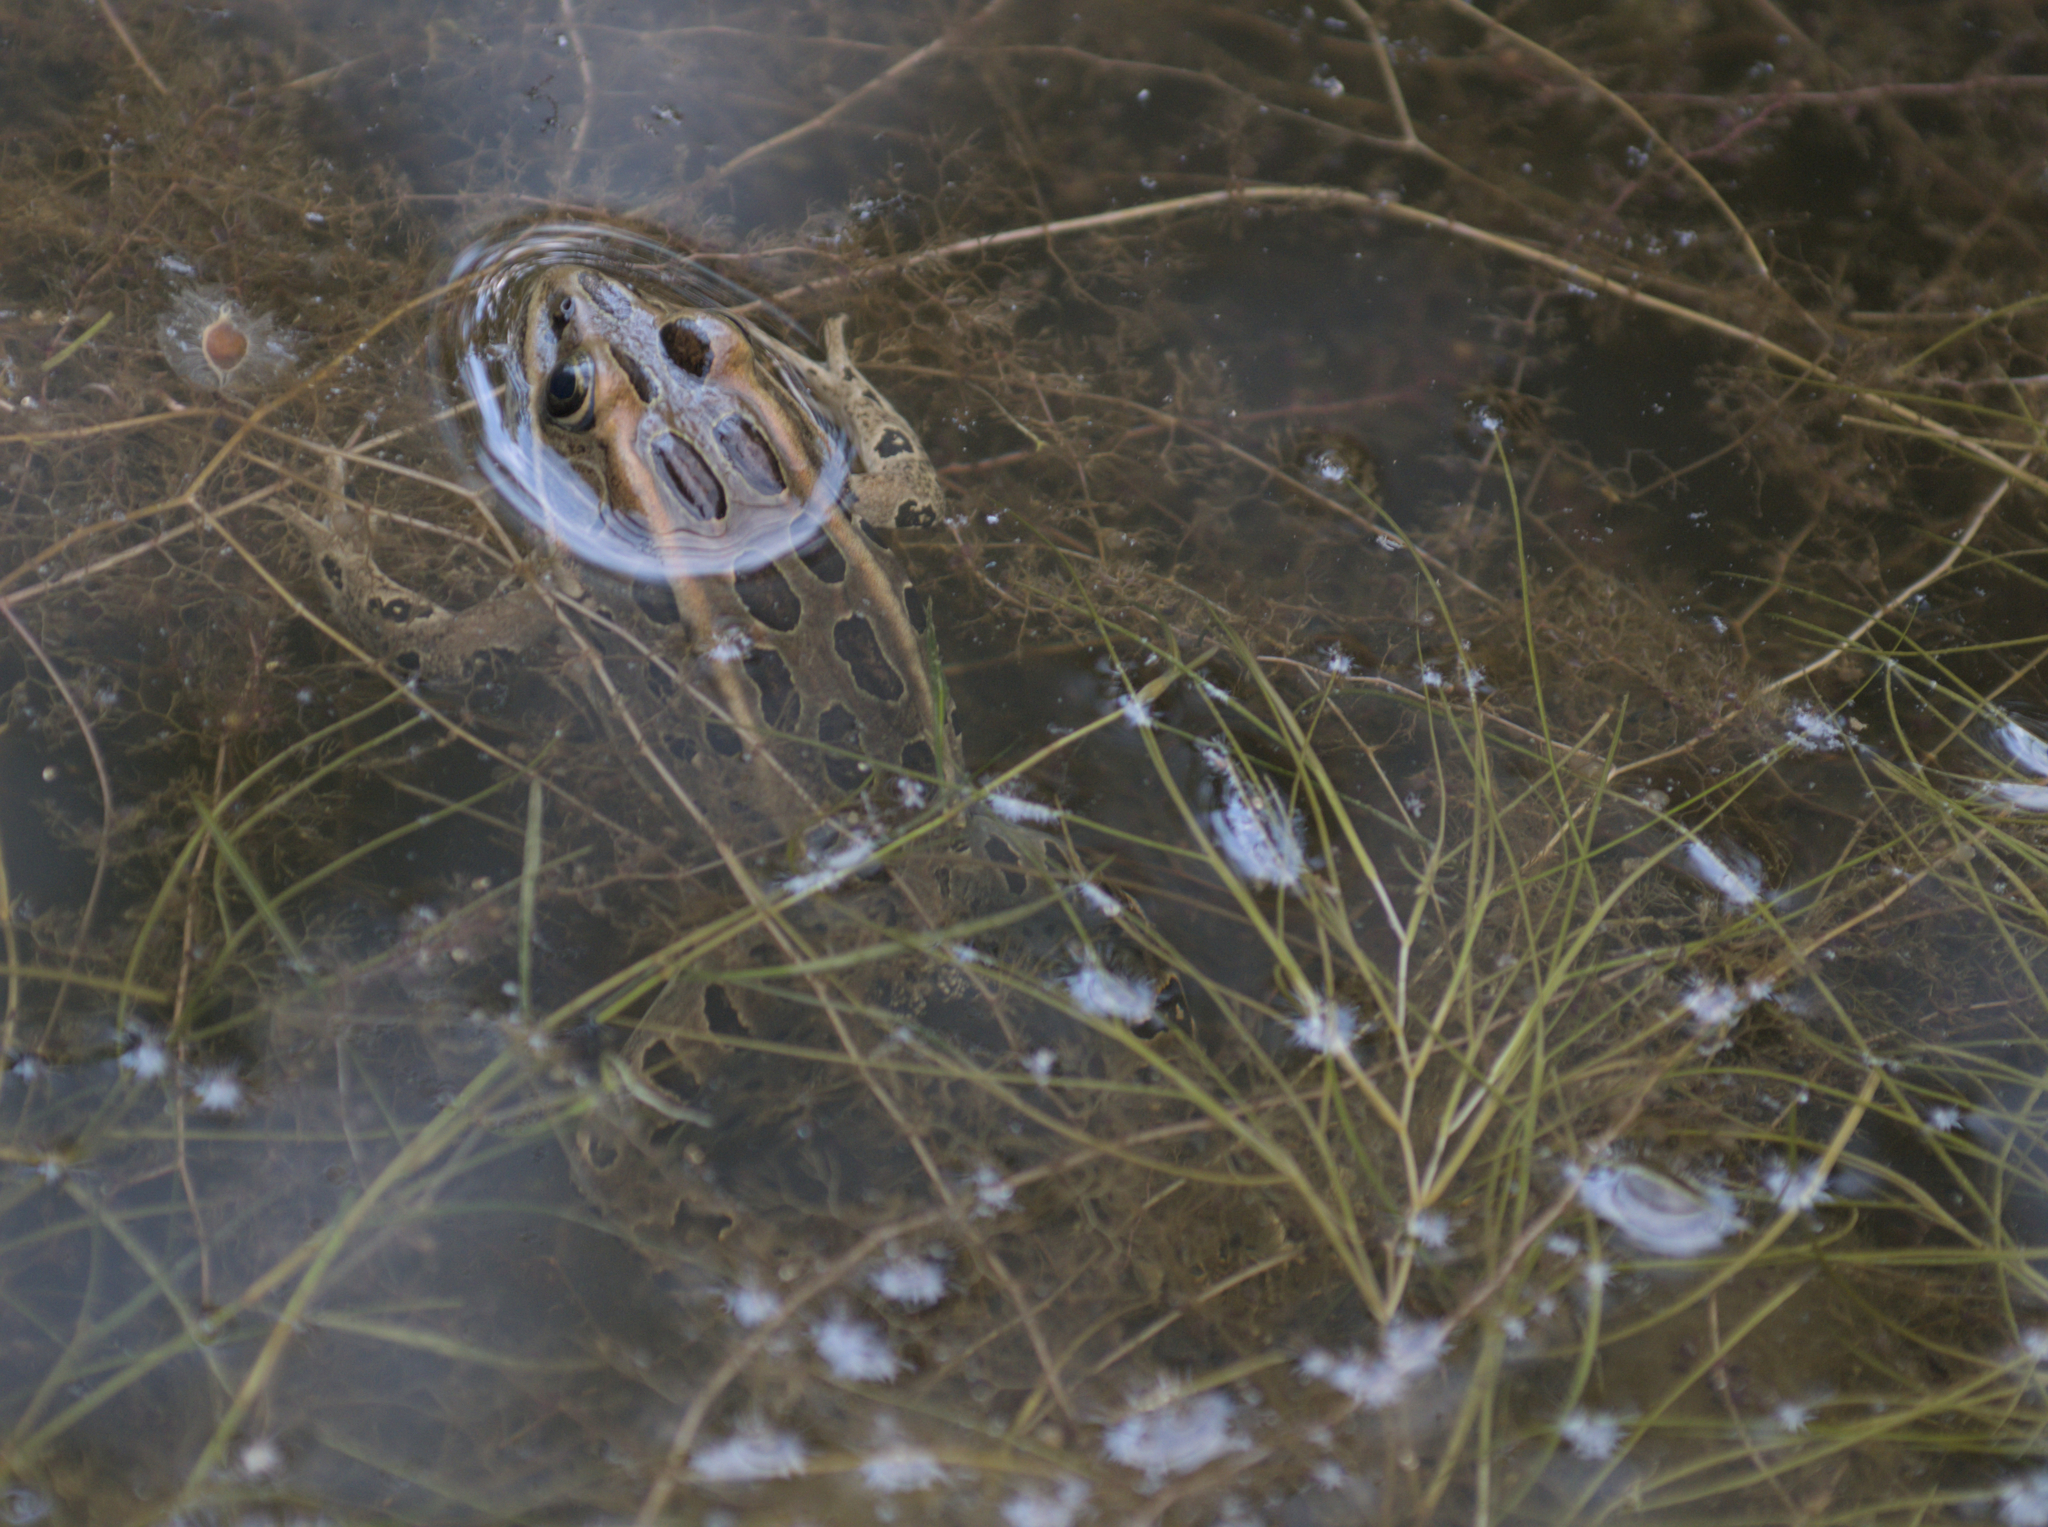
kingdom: Animalia
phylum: Chordata
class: Amphibia
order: Anura
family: Ranidae
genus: Lithobates
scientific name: Lithobates pipiens
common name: Northern leopard frog
